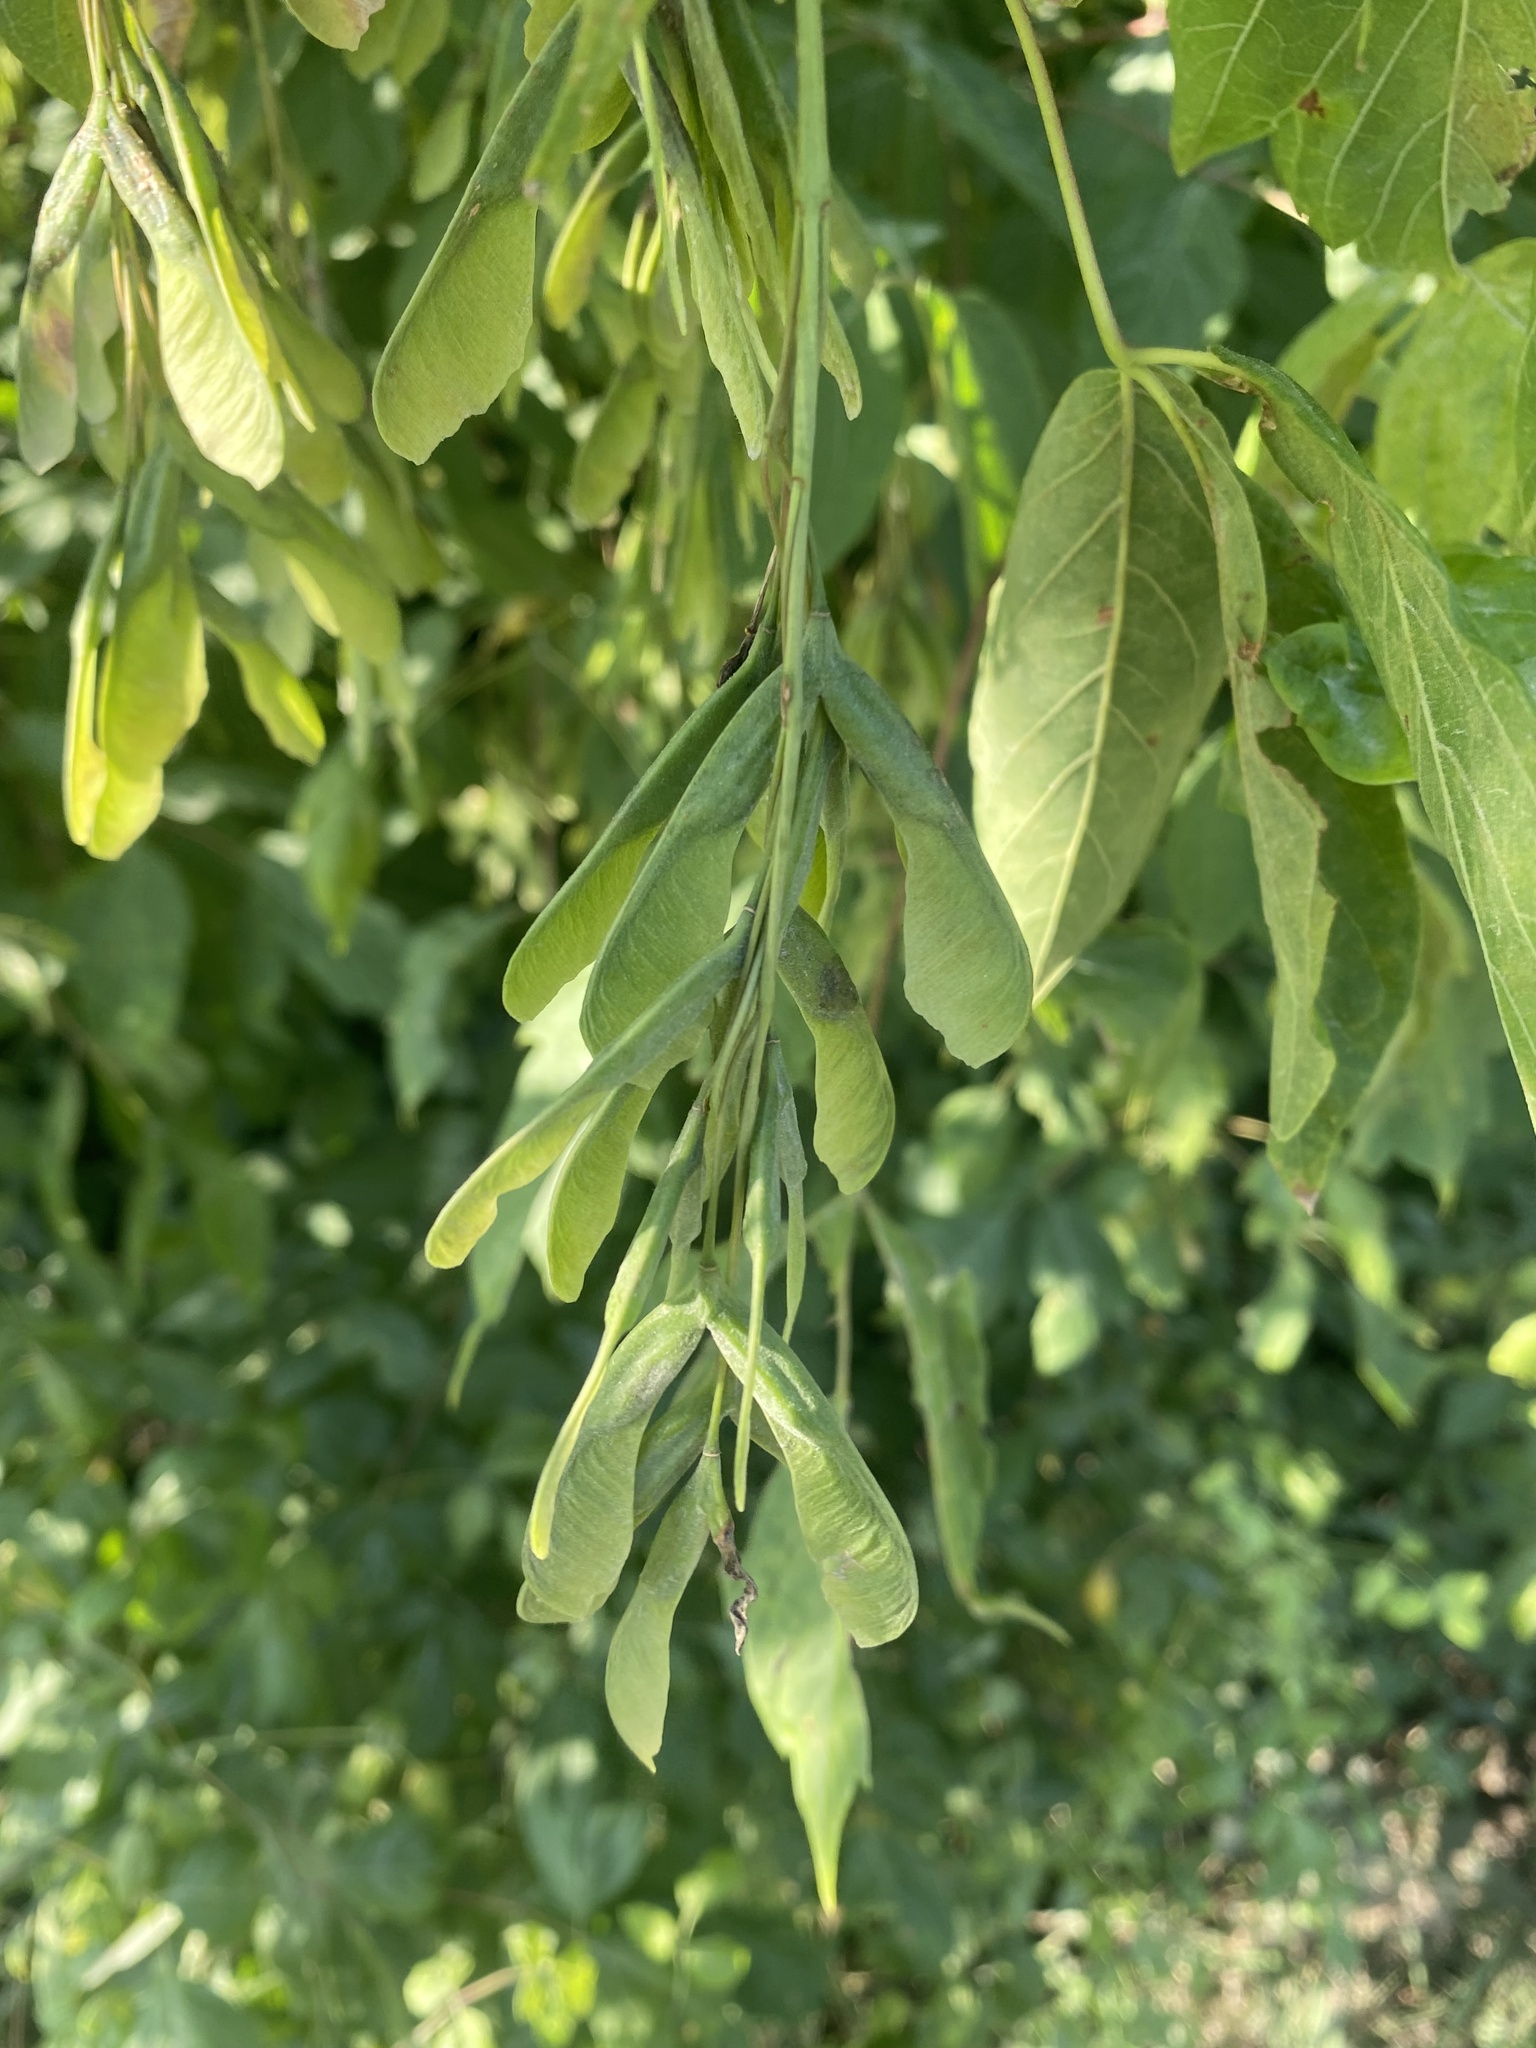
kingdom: Plantae
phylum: Tracheophyta
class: Magnoliopsida
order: Sapindales
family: Sapindaceae
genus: Acer
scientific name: Acer negundo
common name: Ashleaf maple
